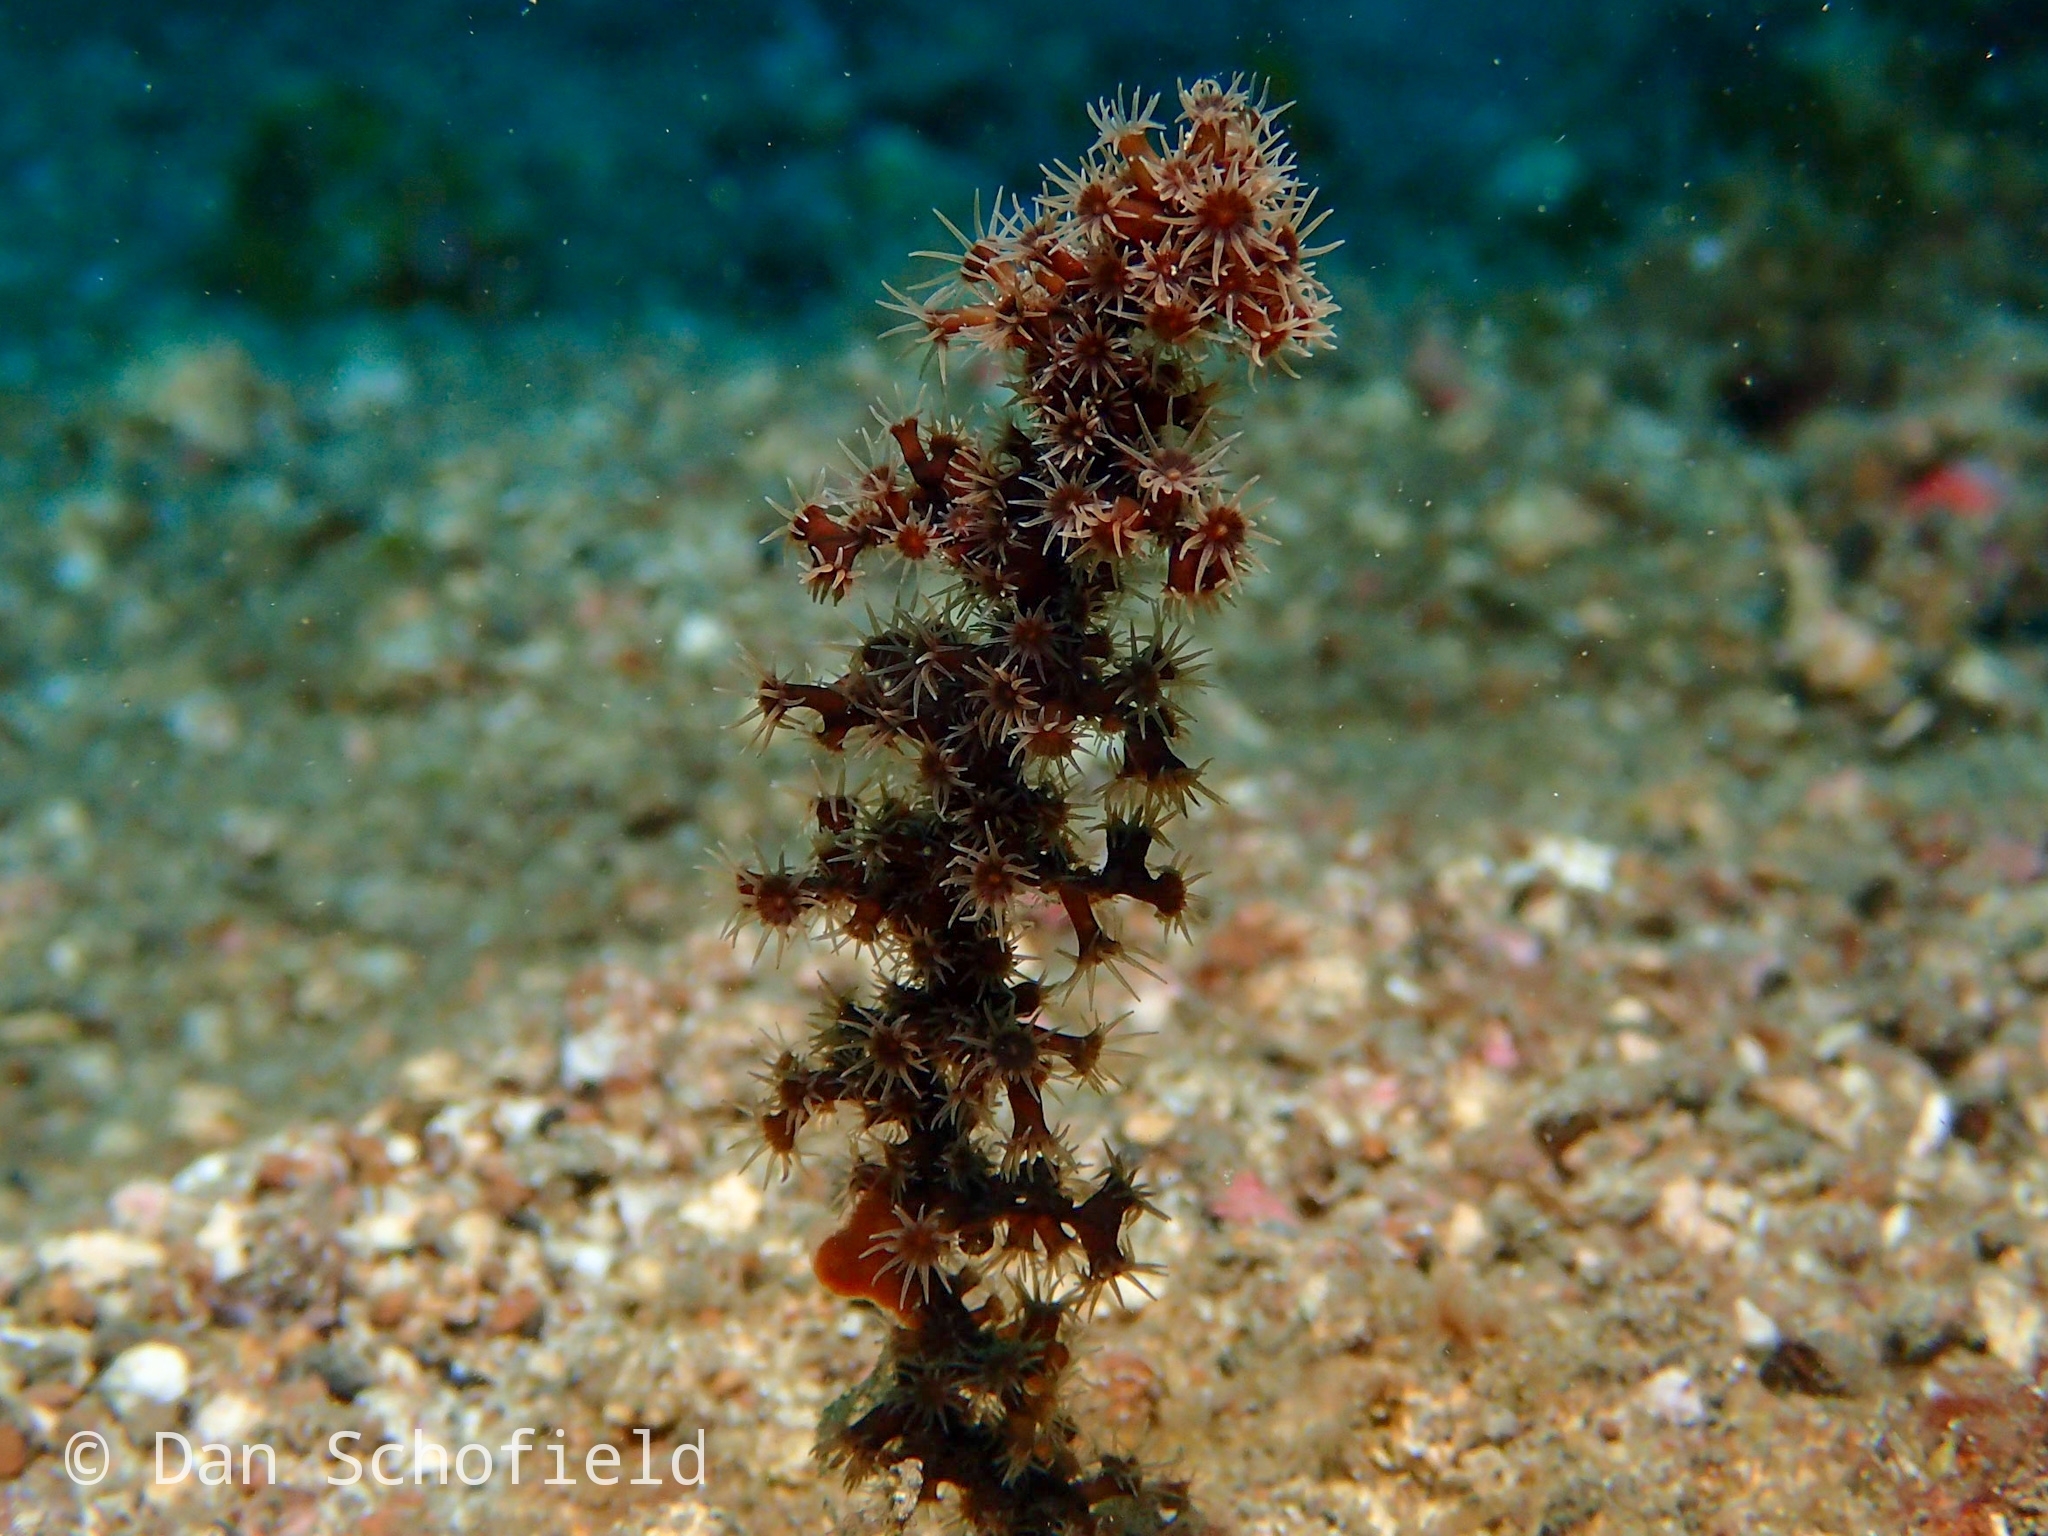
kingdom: Animalia
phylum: Cnidaria
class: Anthozoa
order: Zoantharia
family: Epizoanthidae
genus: Epizoanthus
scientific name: Epizoanthus illoricatus
